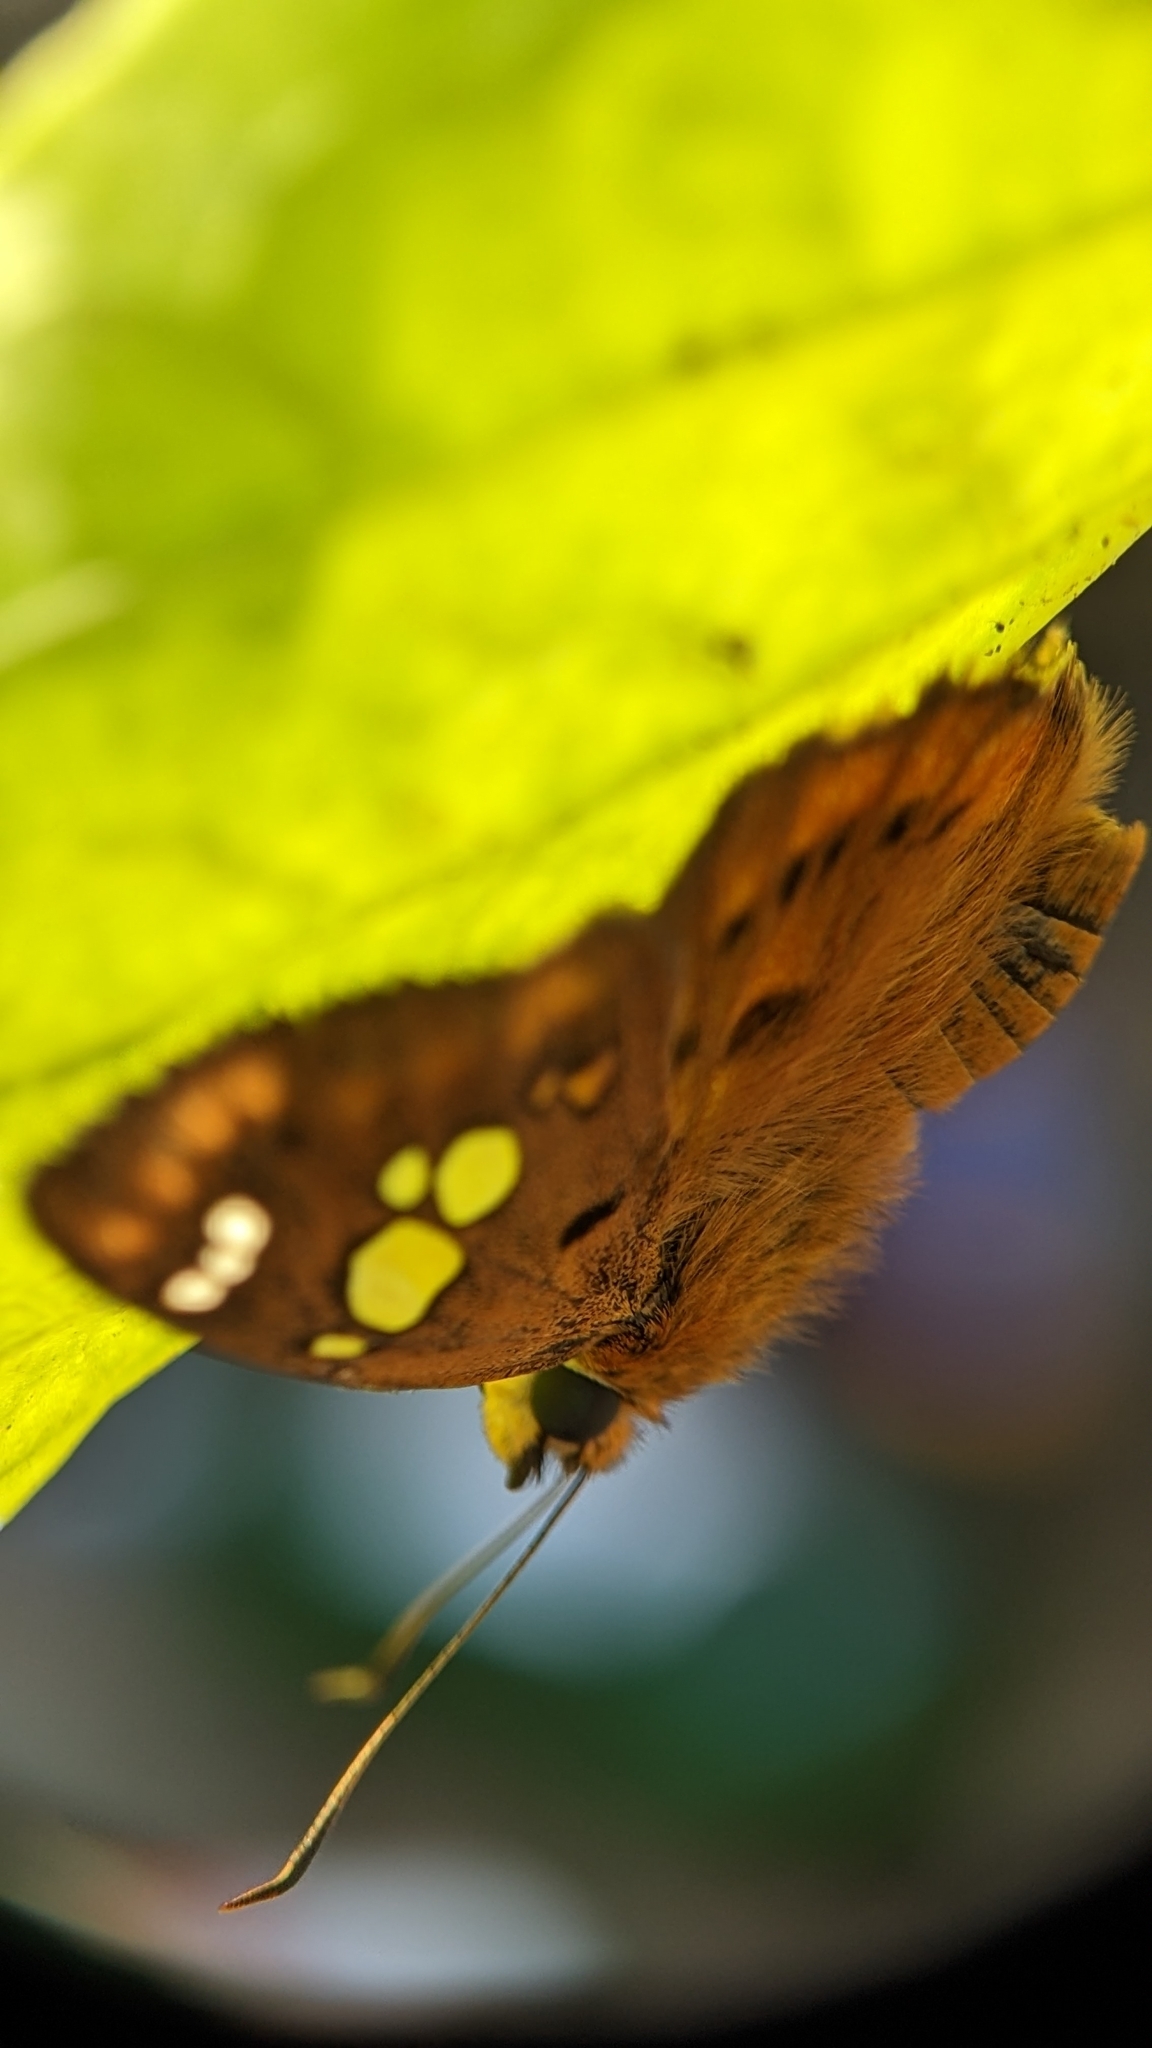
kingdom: Animalia
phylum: Arthropoda
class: Insecta
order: Lepidoptera
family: Hesperiidae
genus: Coladenia
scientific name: Coladenia
